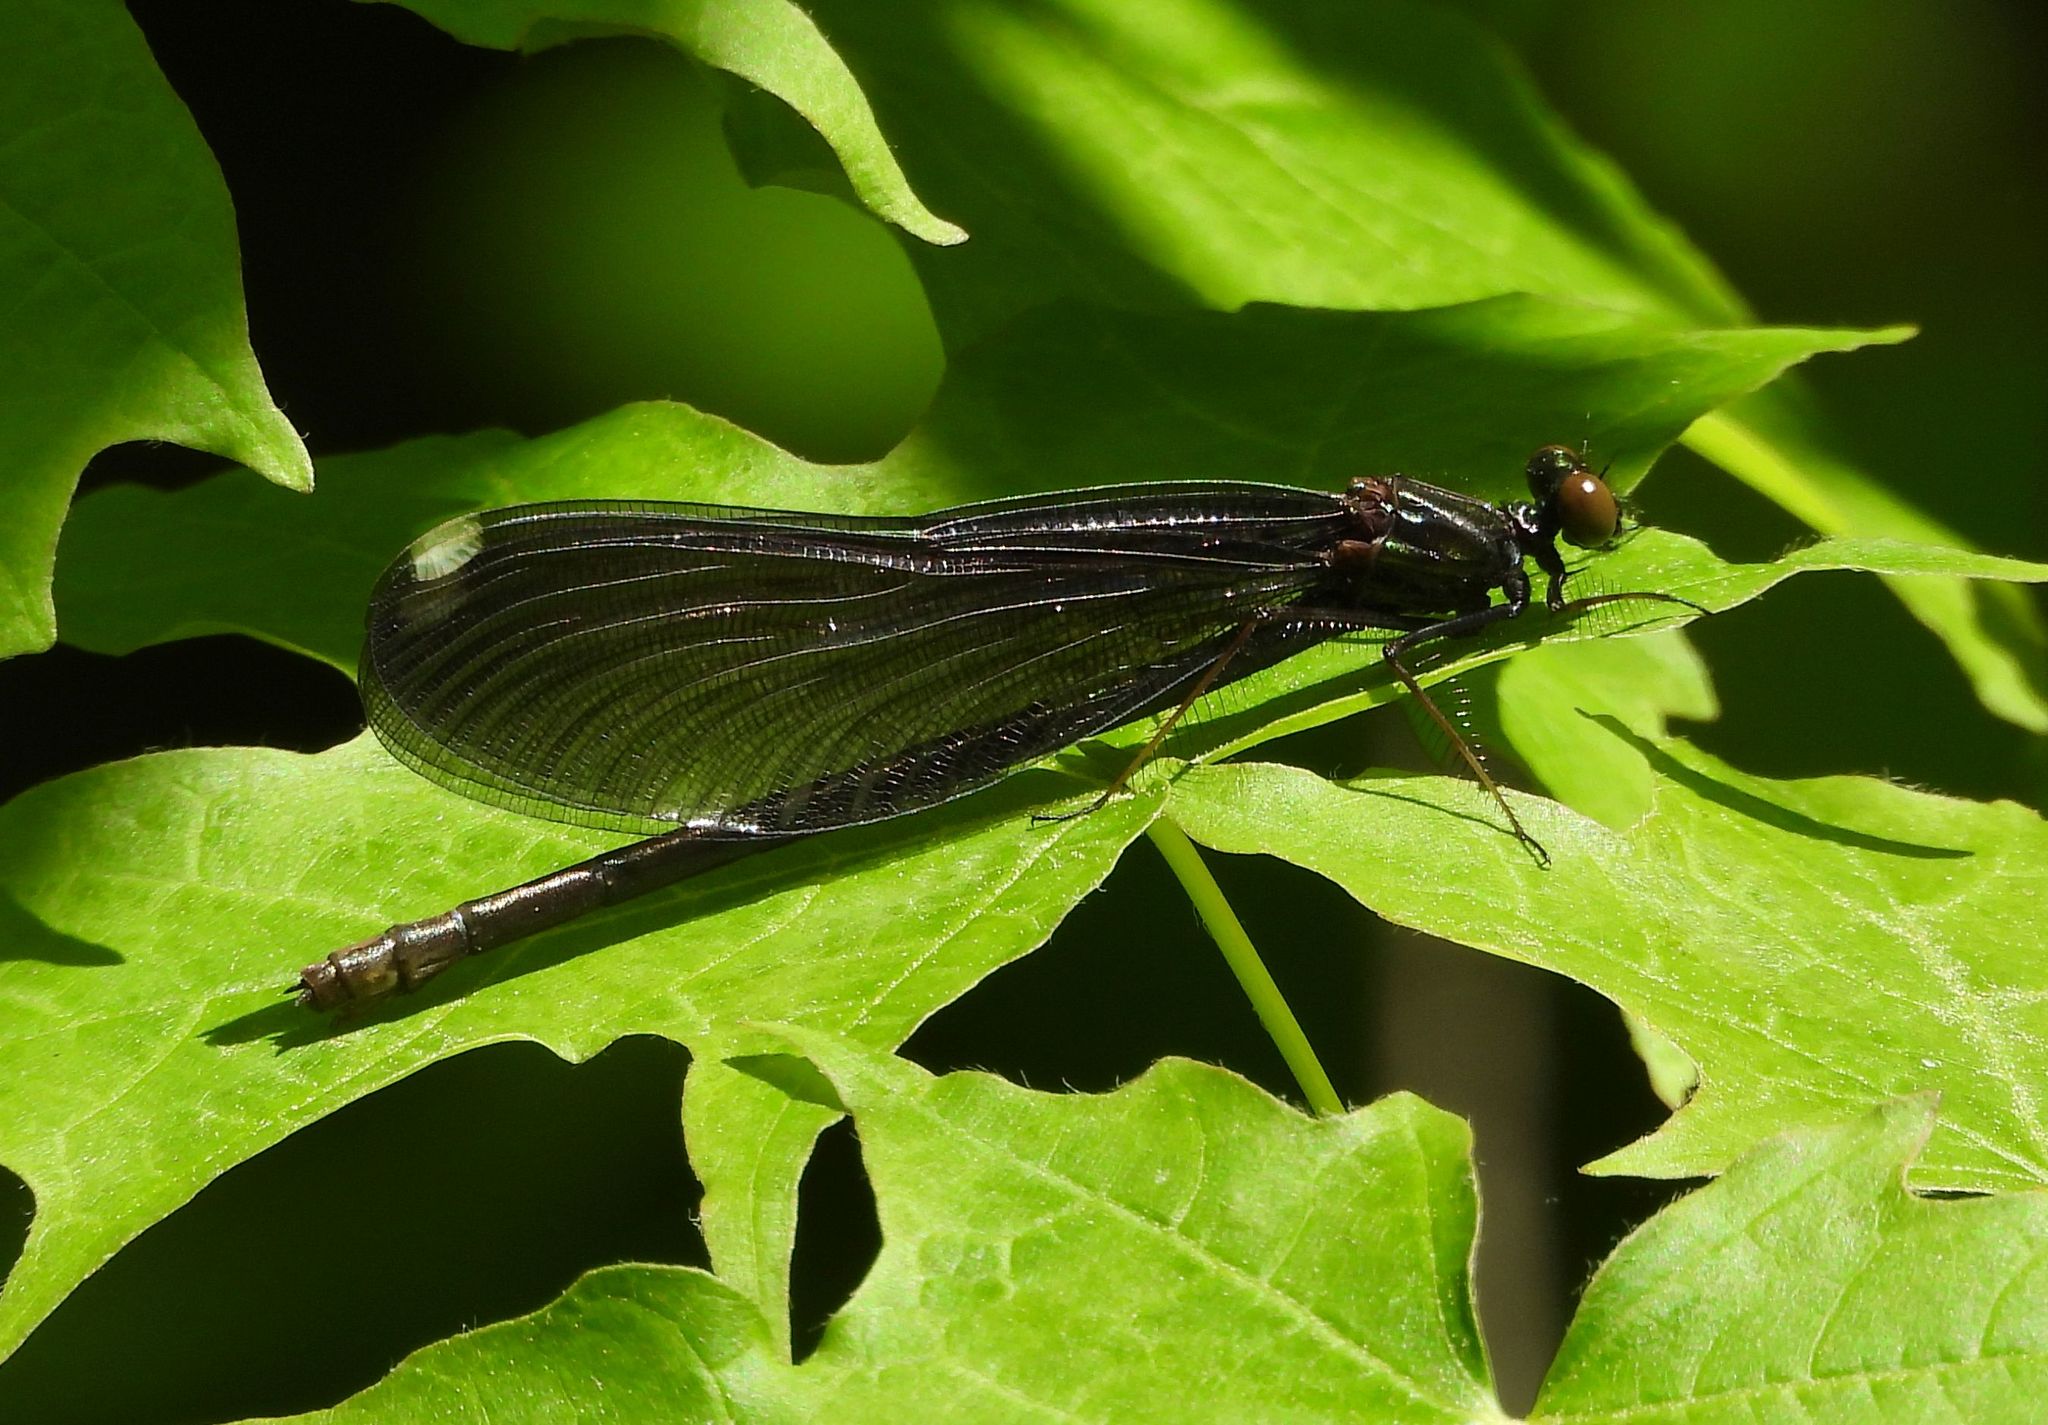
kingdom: Animalia
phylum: Arthropoda
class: Insecta
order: Odonata
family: Calopterygidae
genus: Calopteryx
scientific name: Calopteryx maculata
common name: Ebony jewelwing
